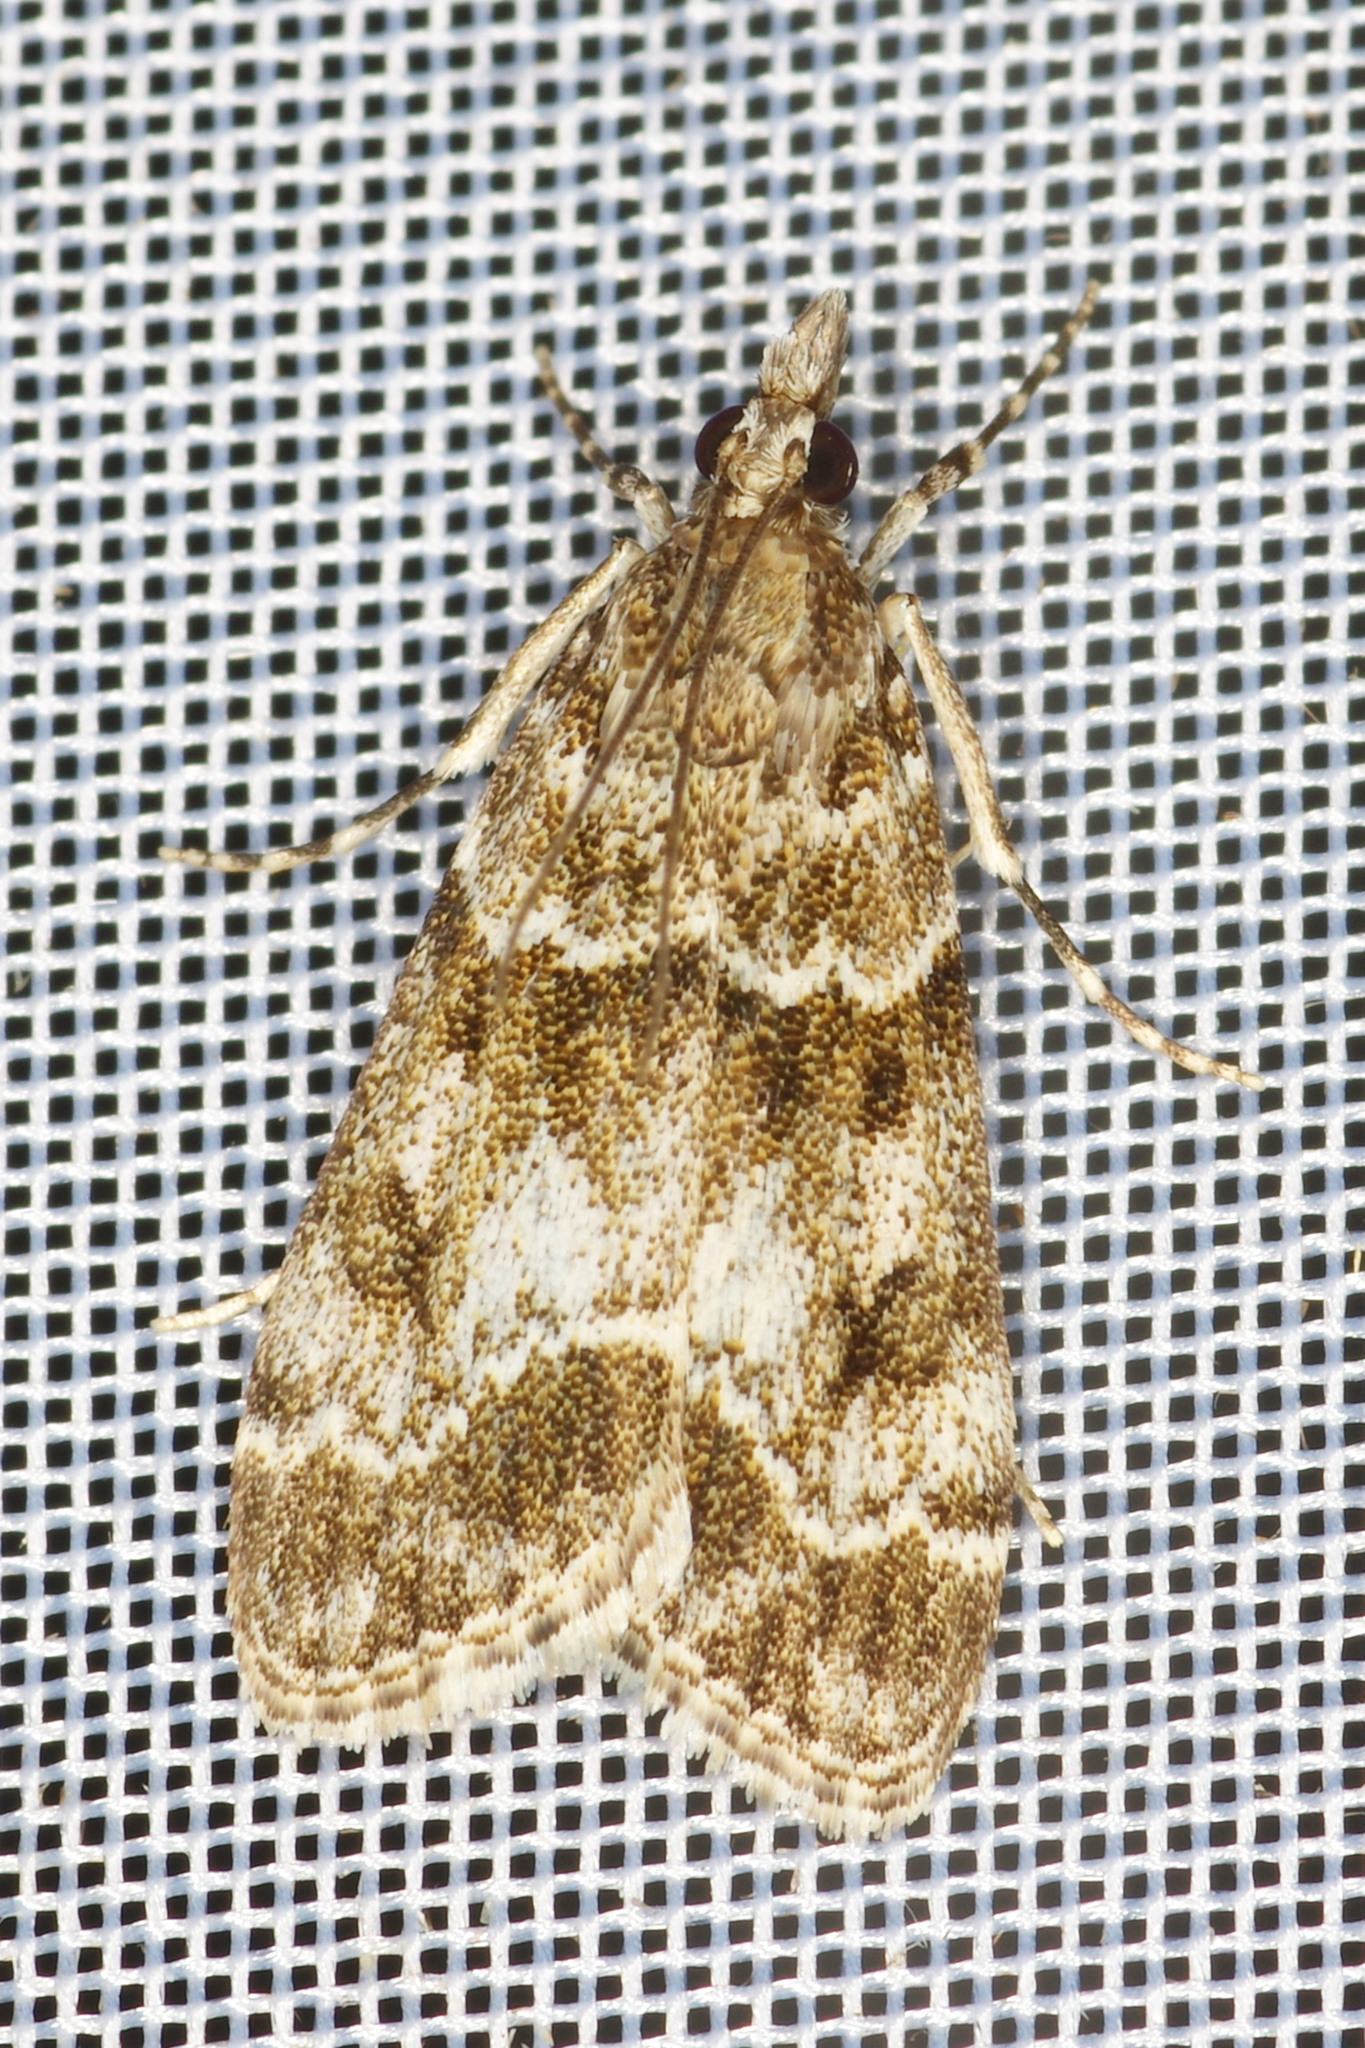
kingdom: Animalia
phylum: Arthropoda
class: Insecta
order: Lepidoptera
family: Crambidae
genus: Eudonia
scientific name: Eudonia mercurella
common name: Small grey
